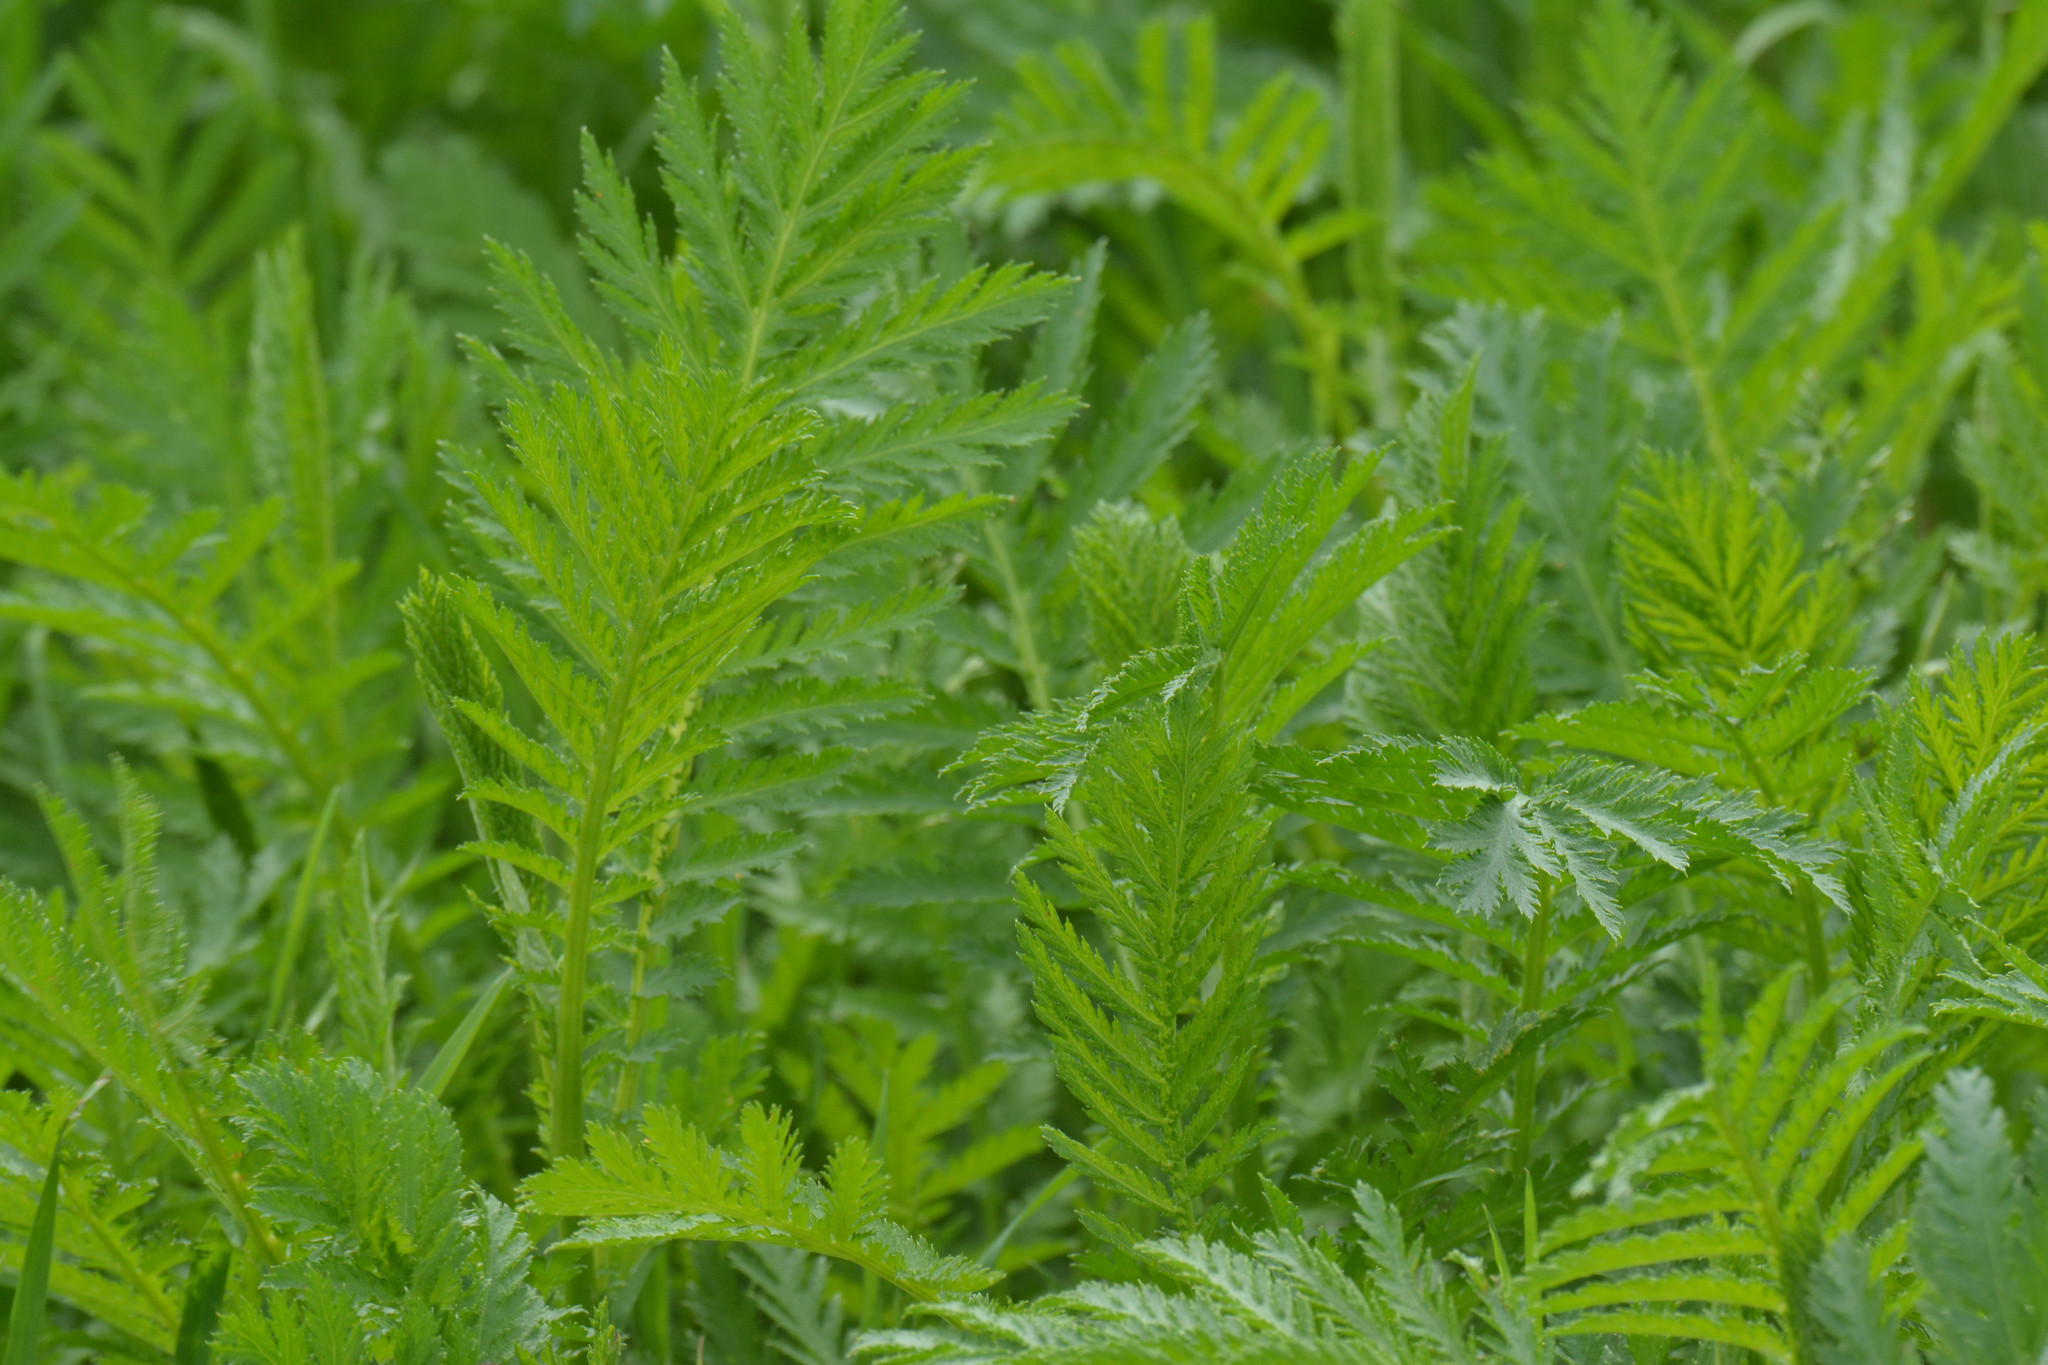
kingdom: Plantae
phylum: Tracheophyta
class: Magnoliopsida
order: Asterales
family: Asteraceae
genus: Tanacetum
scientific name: Tanacetum vulgare
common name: Common tansy
